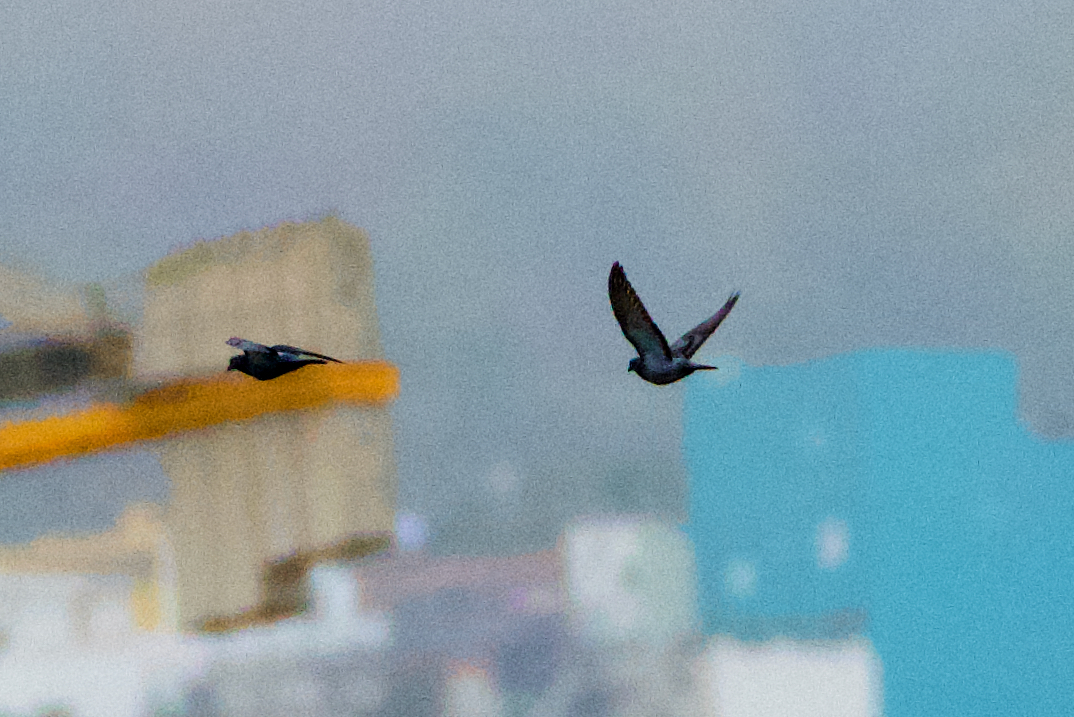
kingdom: Animalia
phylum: Chordata
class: Aves
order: Columbiformes
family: Columbidae
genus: Columba
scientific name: Columba livia
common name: Rock pigeon
